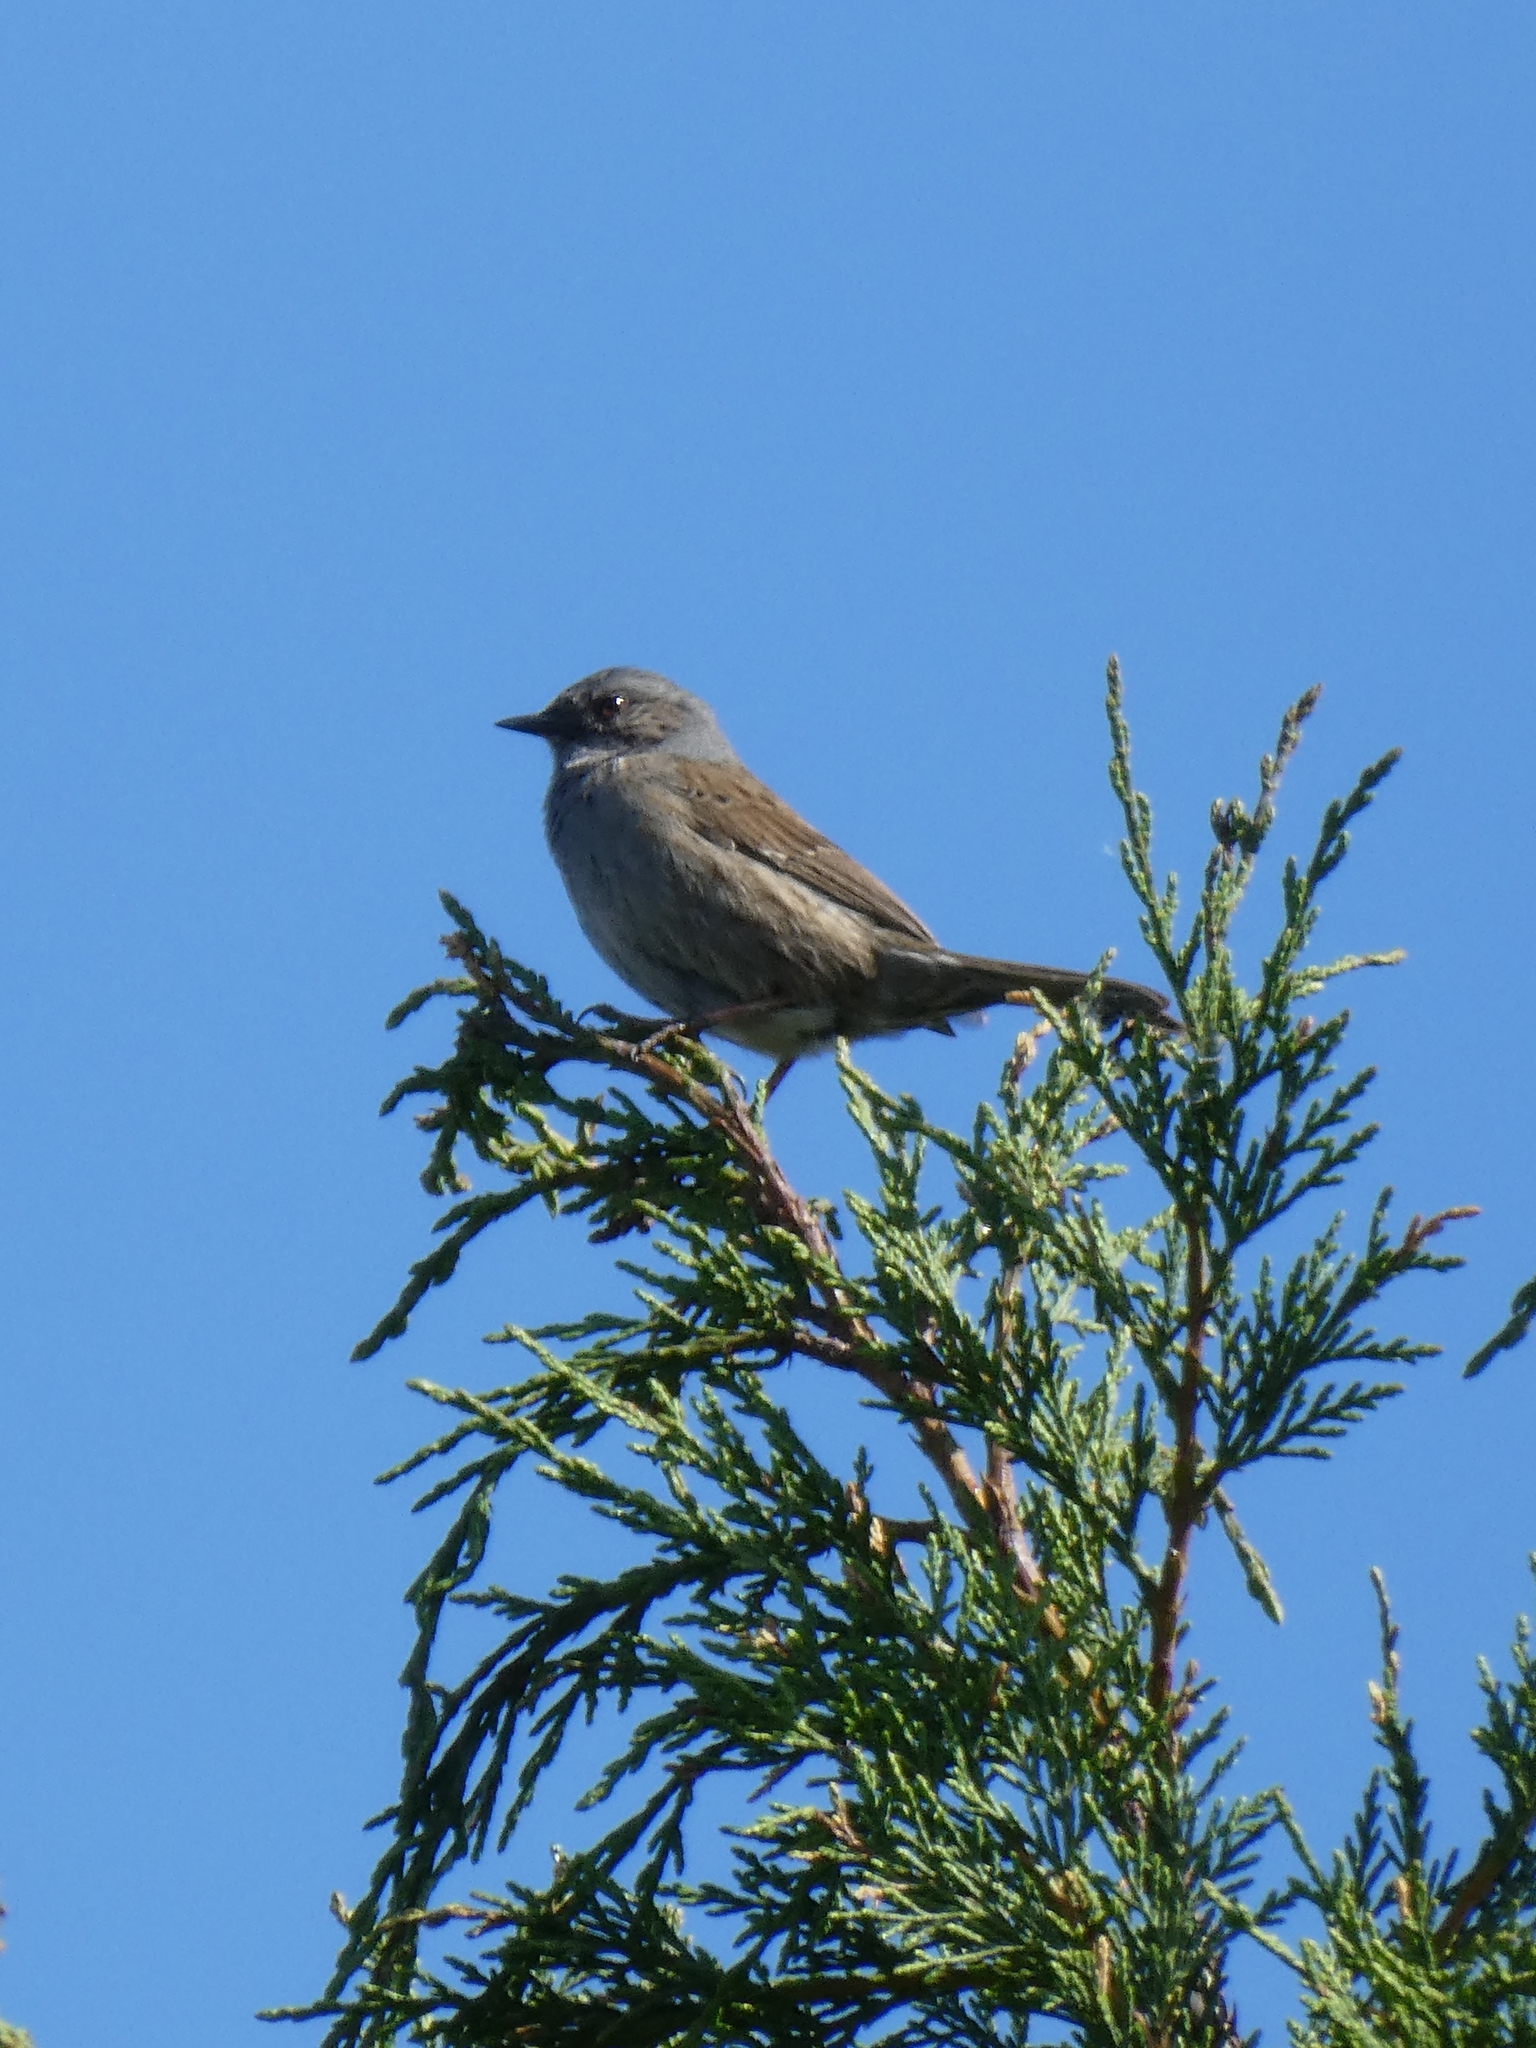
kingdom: Animalia
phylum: Chordata
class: Aves
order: Passeriformes
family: Prunellidae
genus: Prunella
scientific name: Prunella modularis
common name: Dunnock
